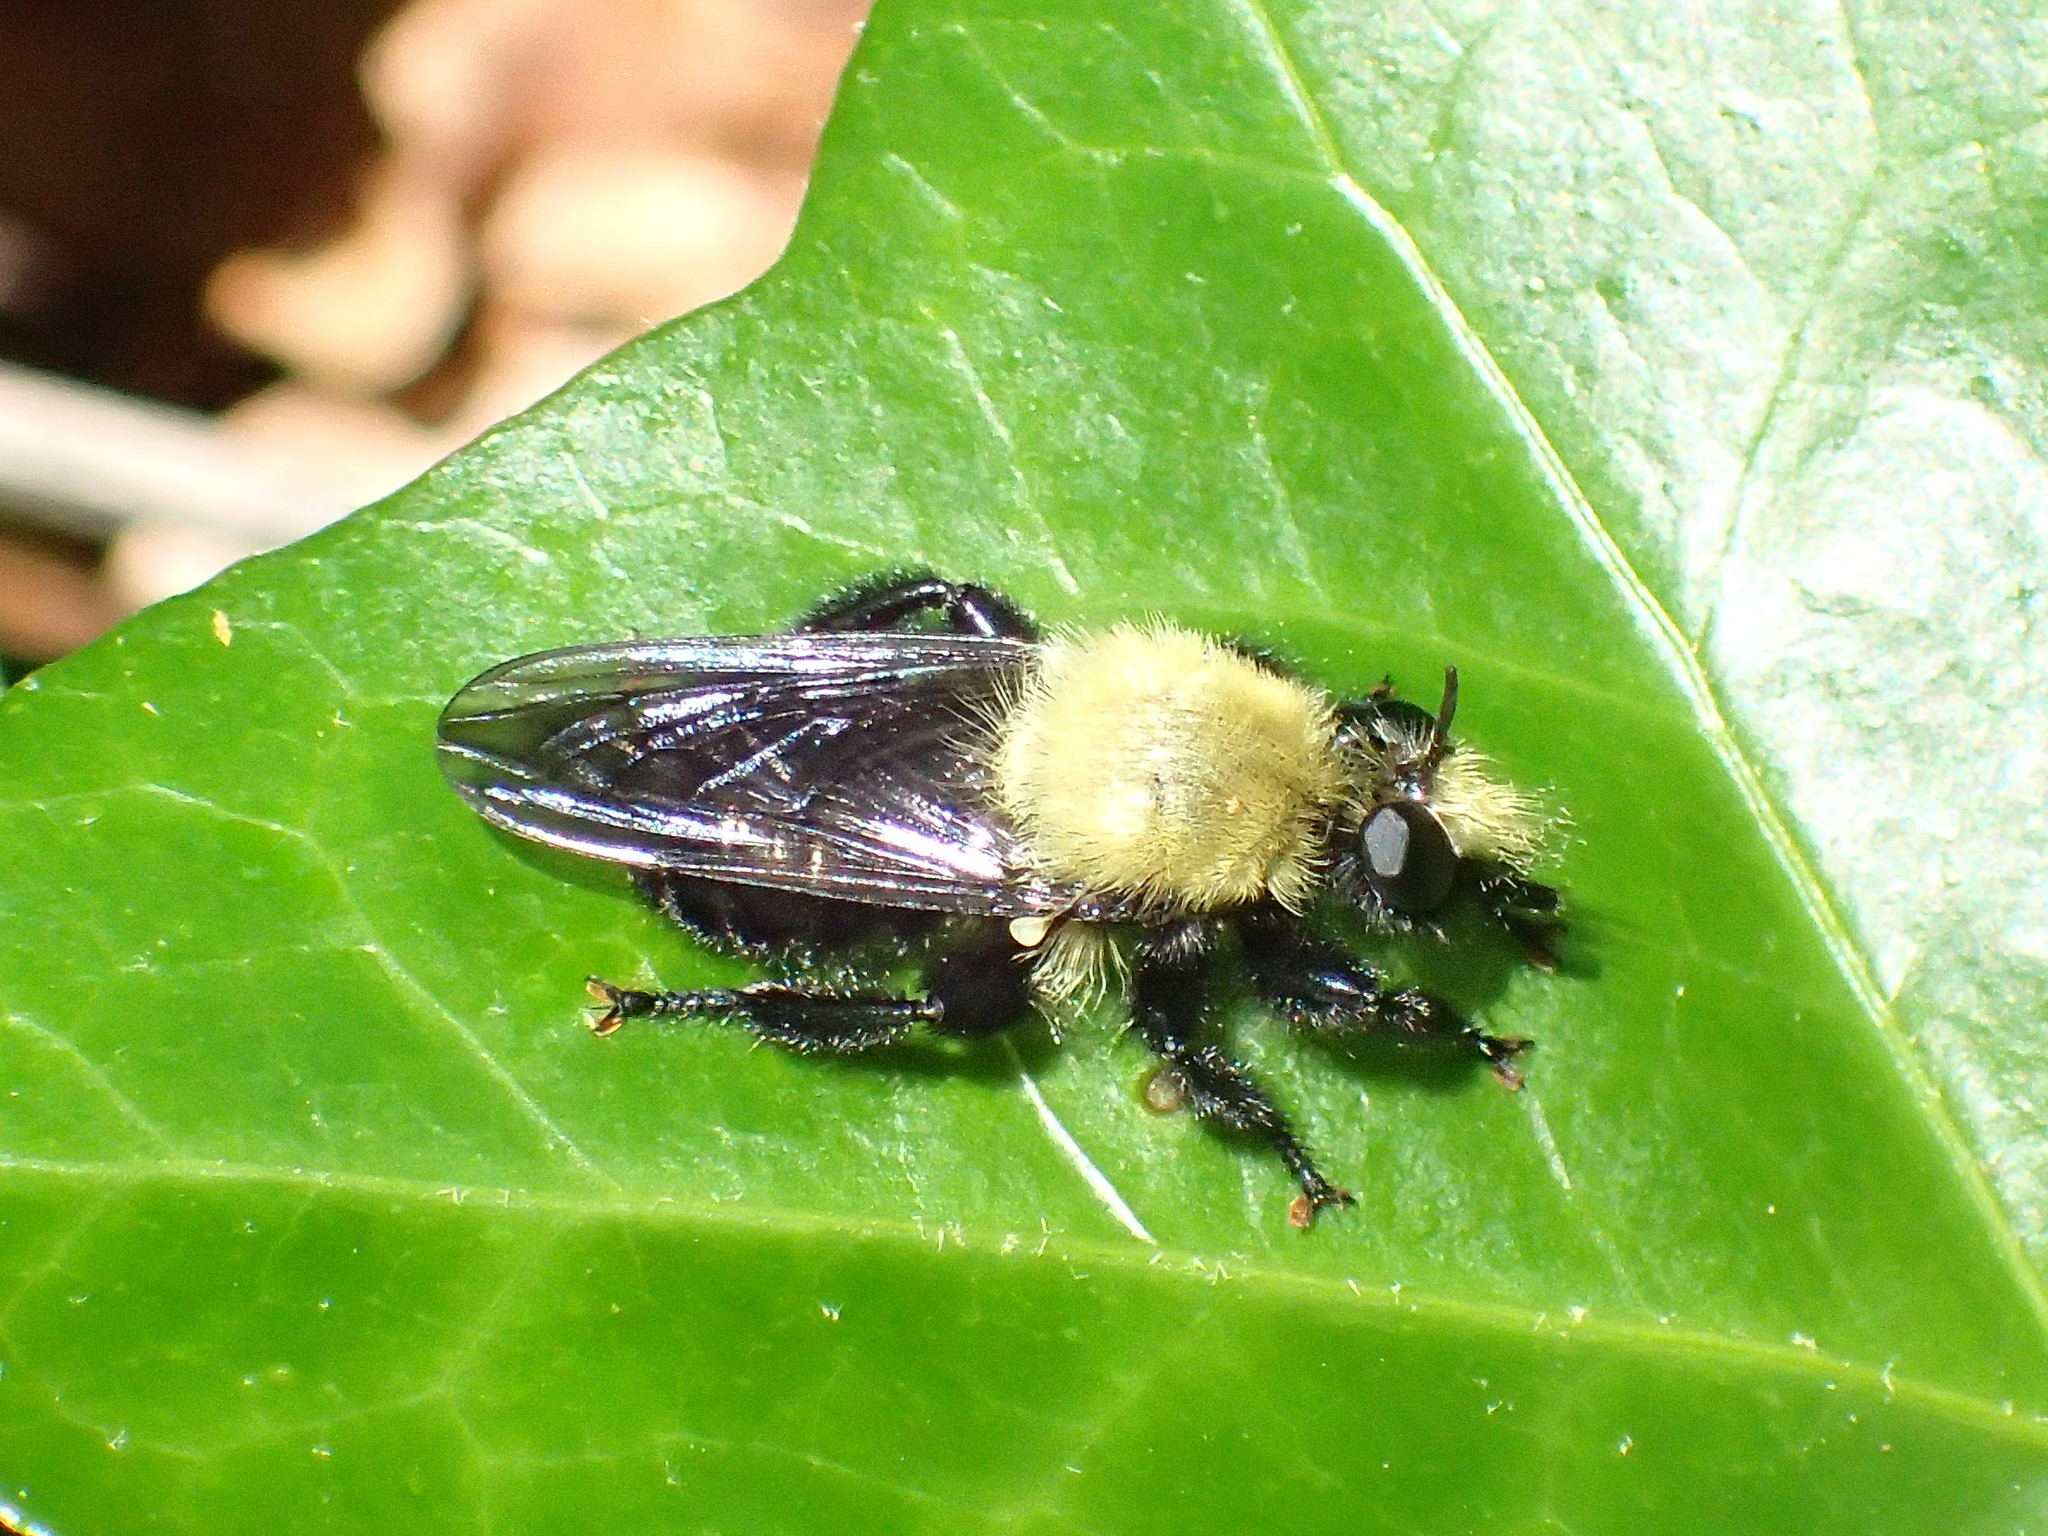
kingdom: Animalia
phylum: Arthropoda
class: Insecta
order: Diptera
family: Asilidae
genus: Laphria
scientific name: Laphria flavicollis
